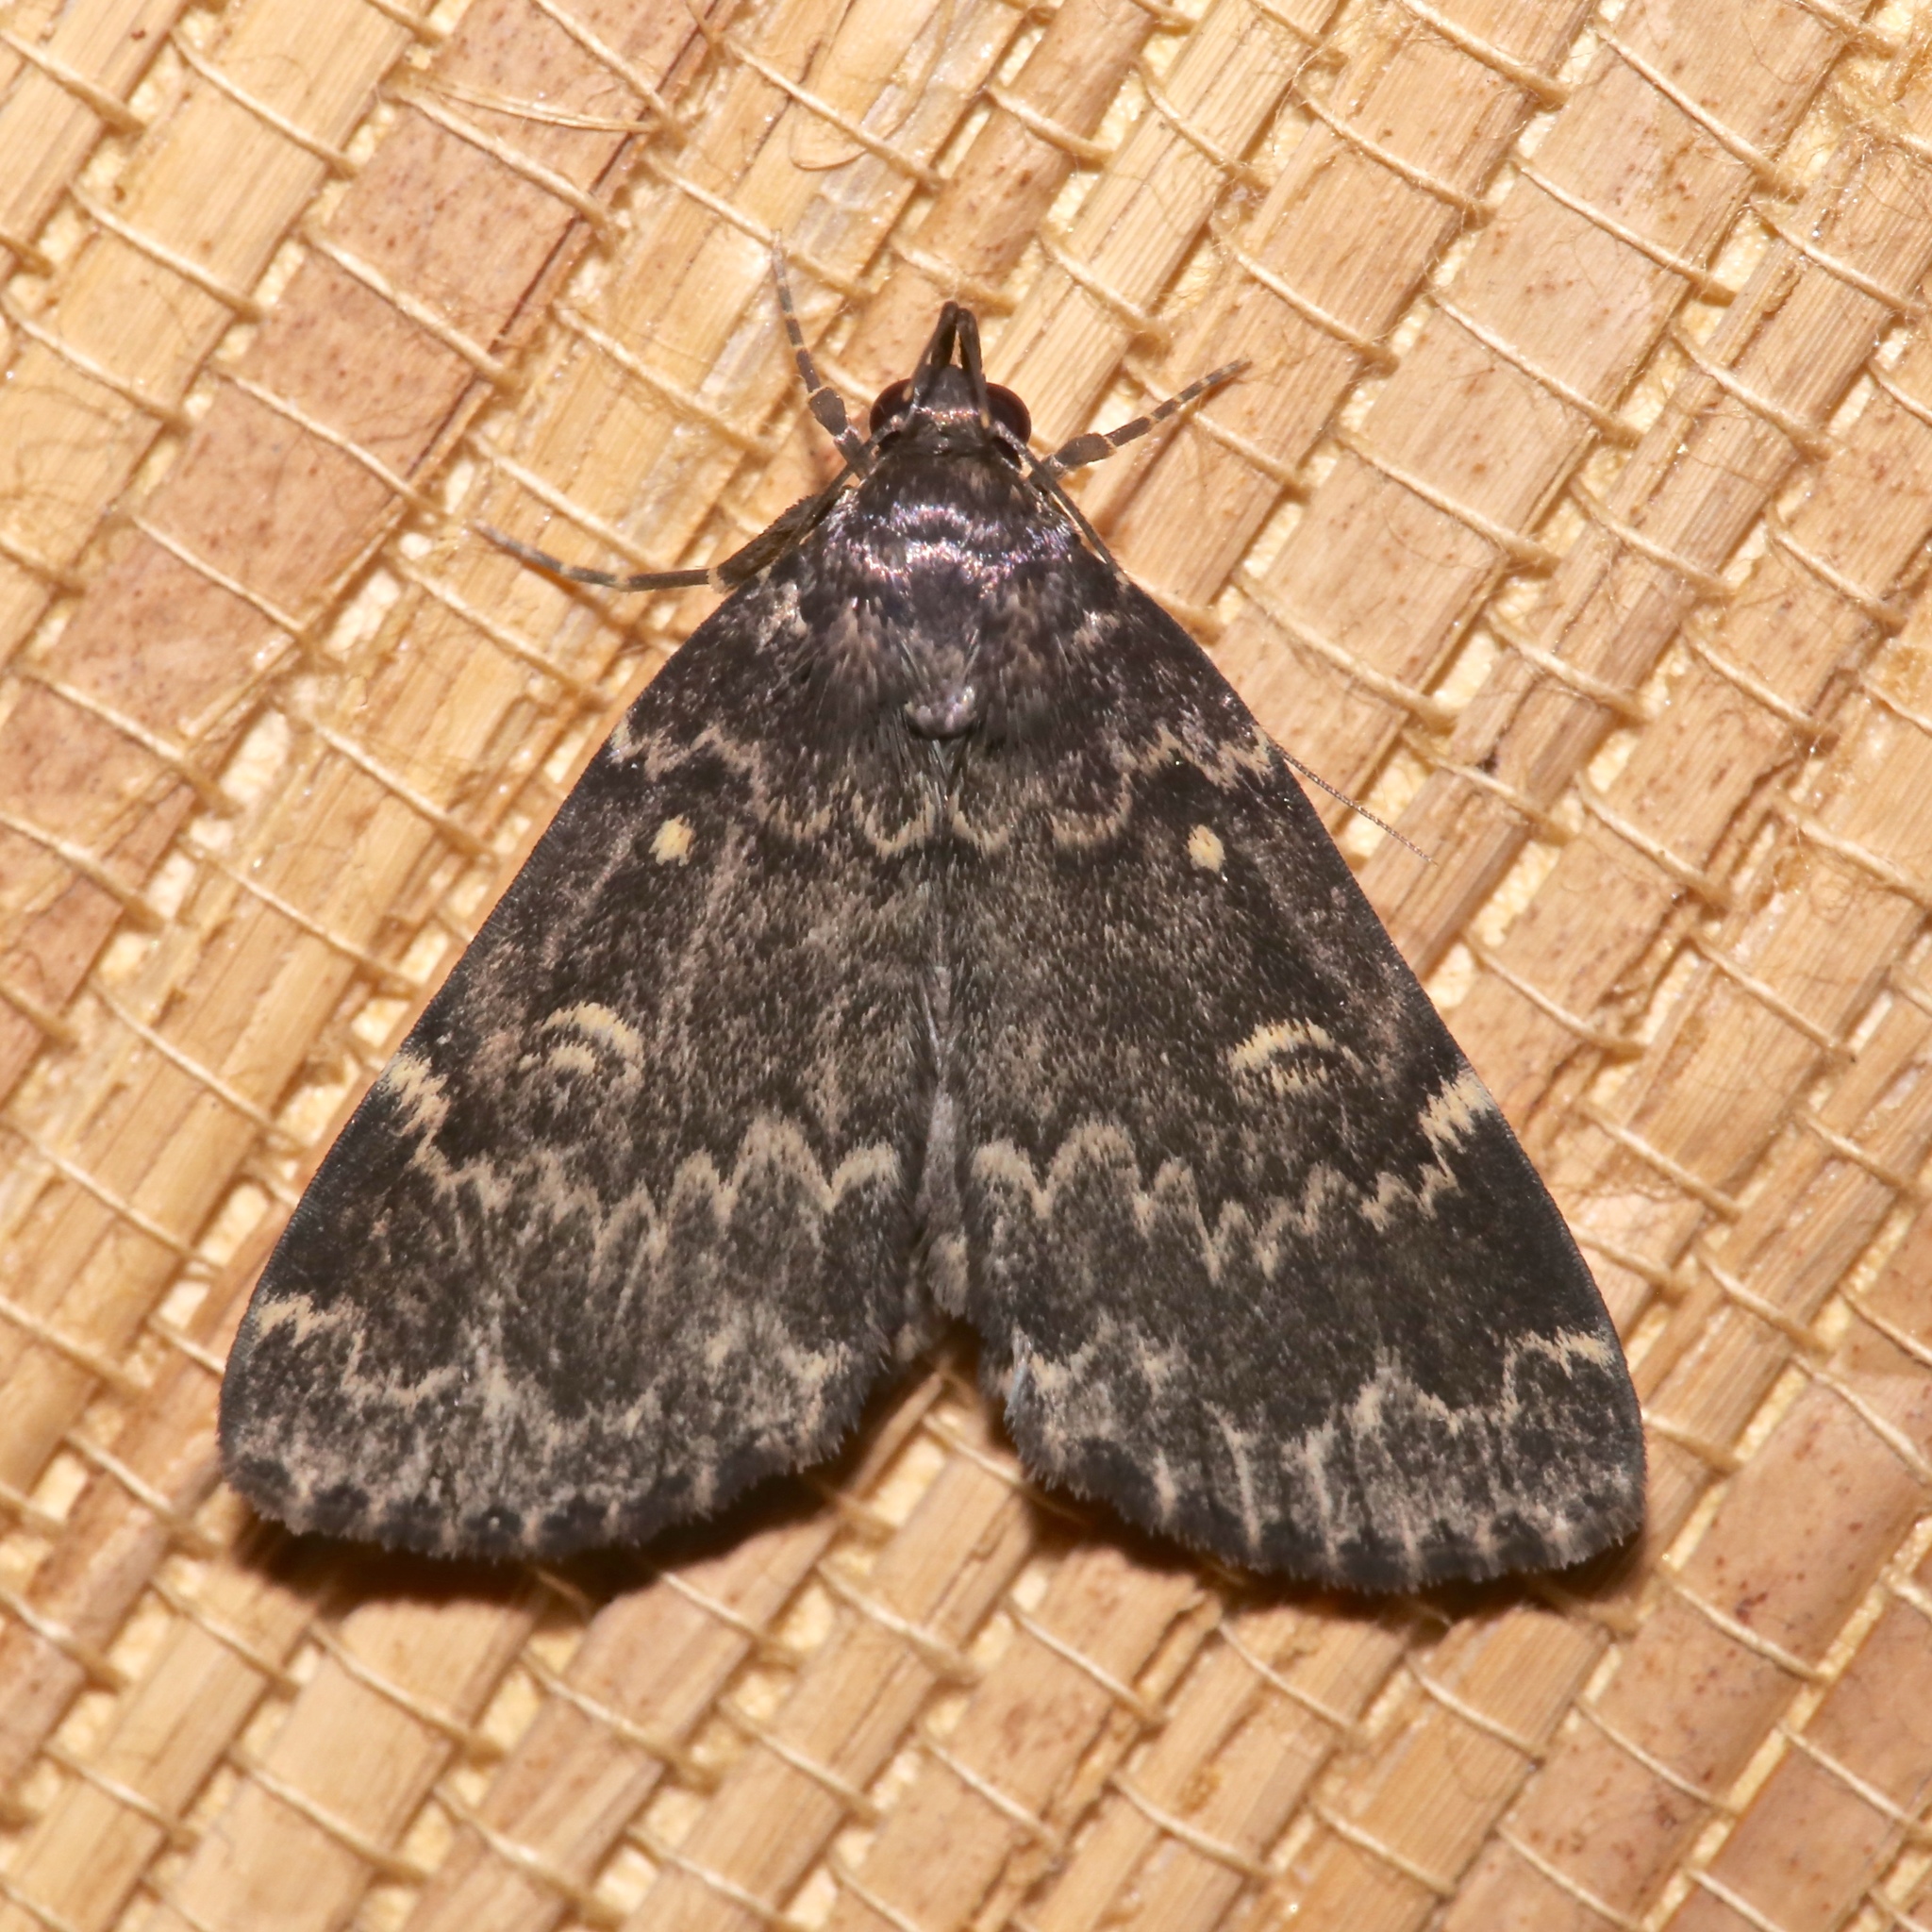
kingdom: Animalia
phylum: Arthropoda
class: Insecta
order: Lepidoptera
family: Erebidae
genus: Idia
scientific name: Idia lubricalis
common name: Twin-striped tabby
